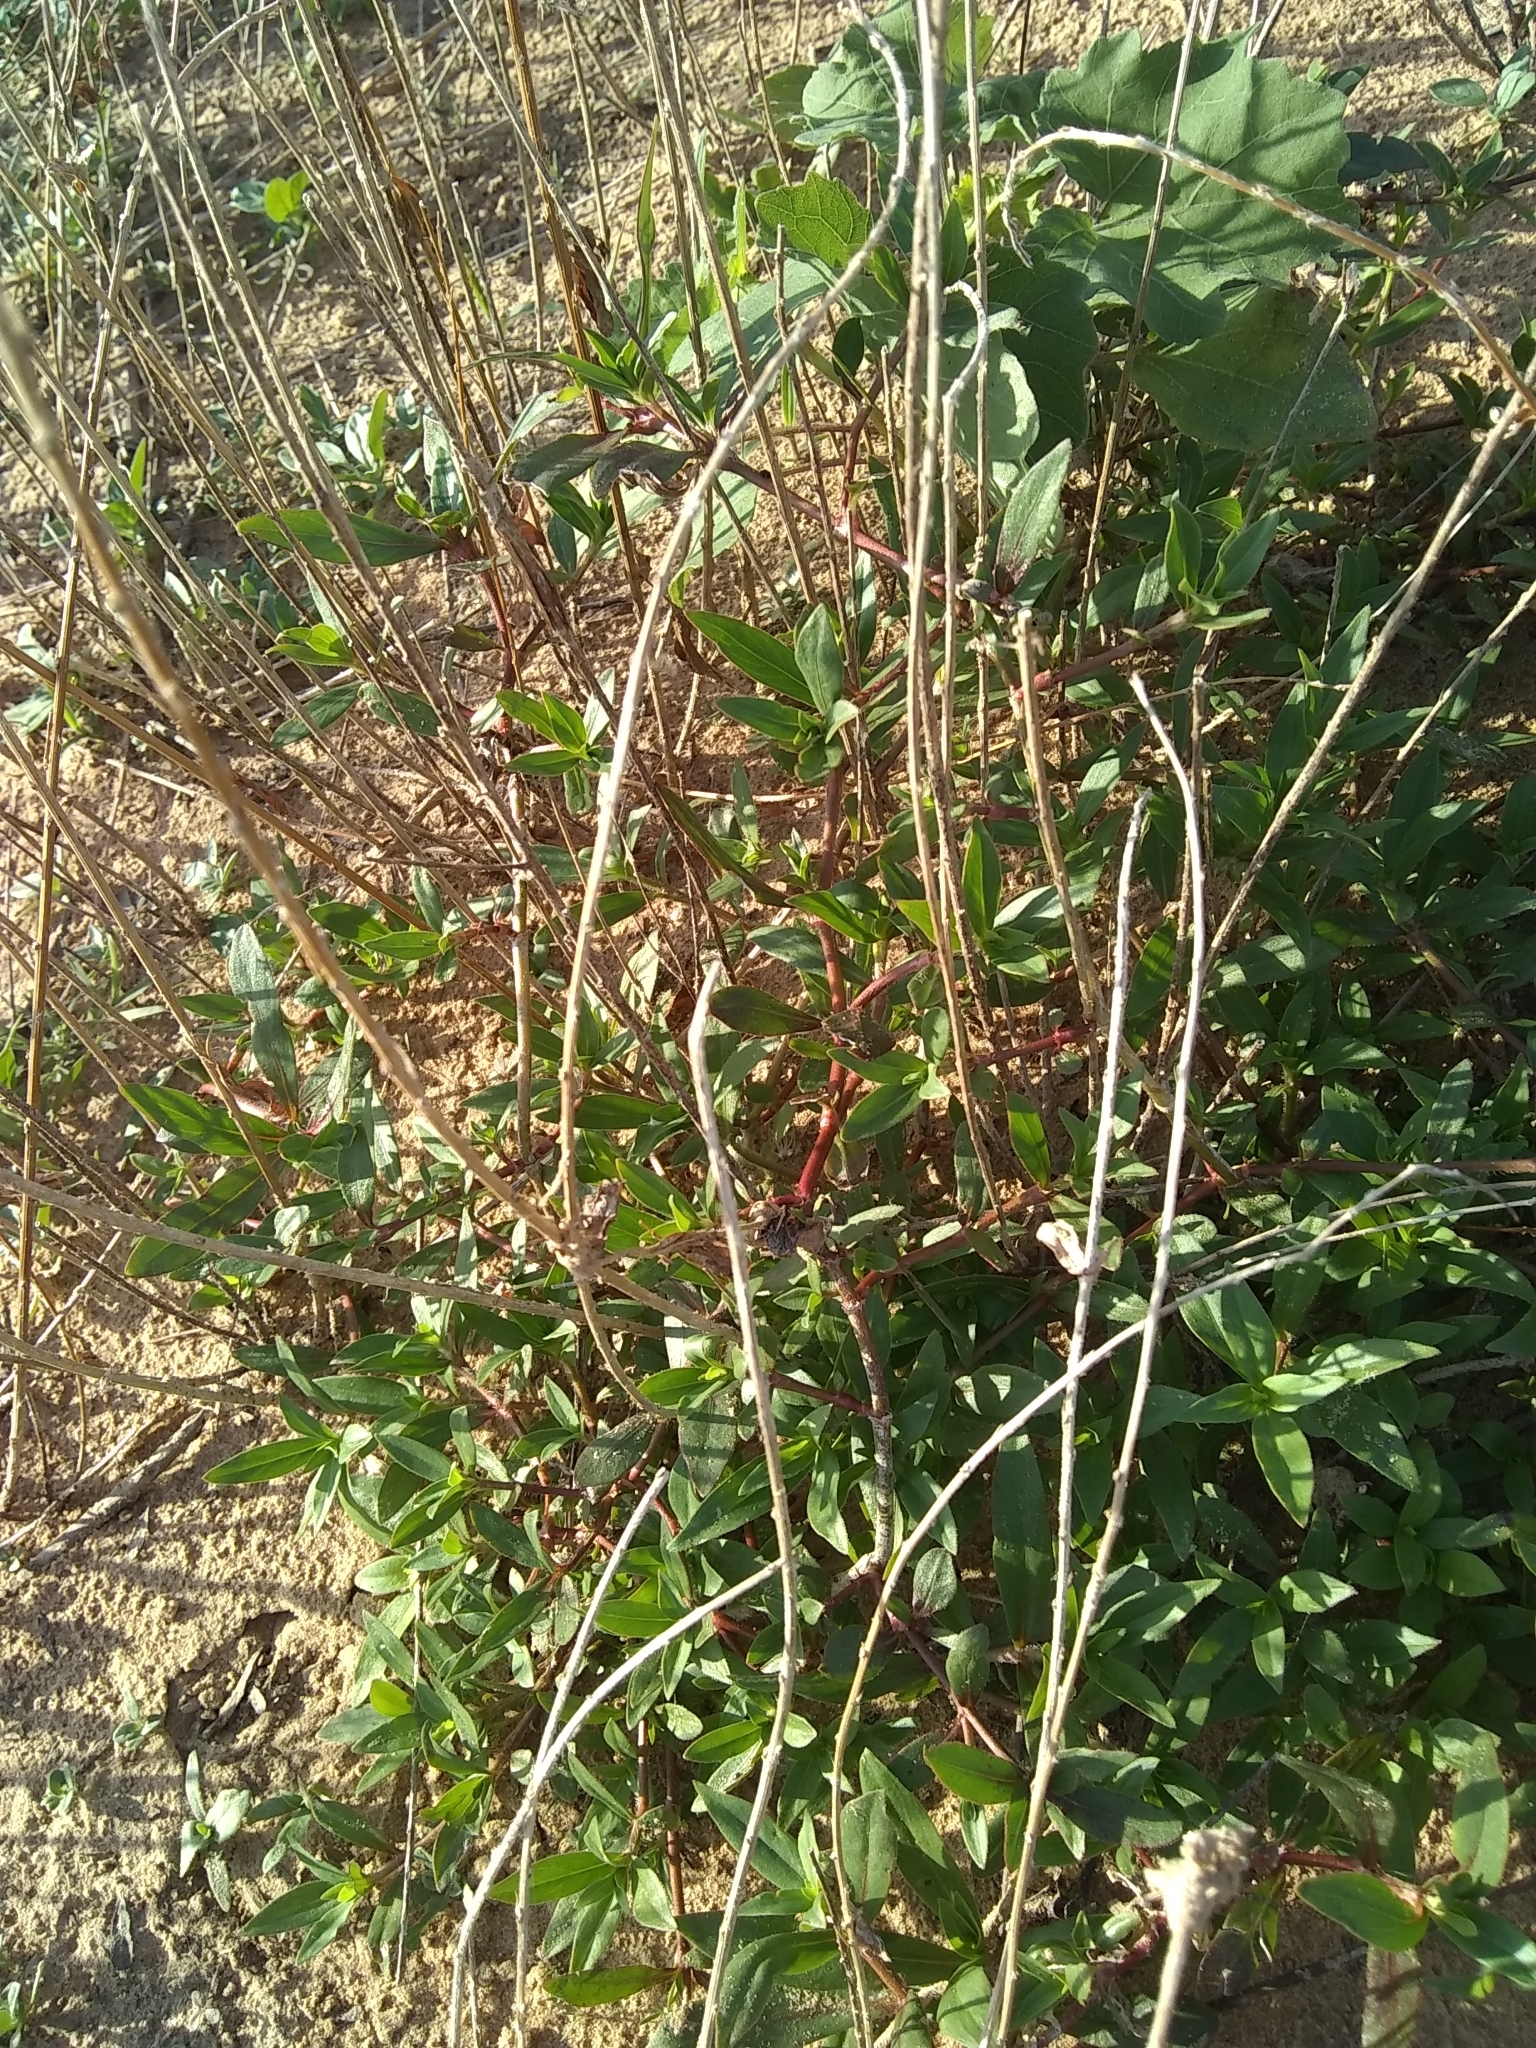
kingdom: Plantae
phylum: Tracheophyta
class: Magnoliopsida
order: Gentianales
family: Rubiaceae
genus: Diodia
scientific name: Diodia virginiana
